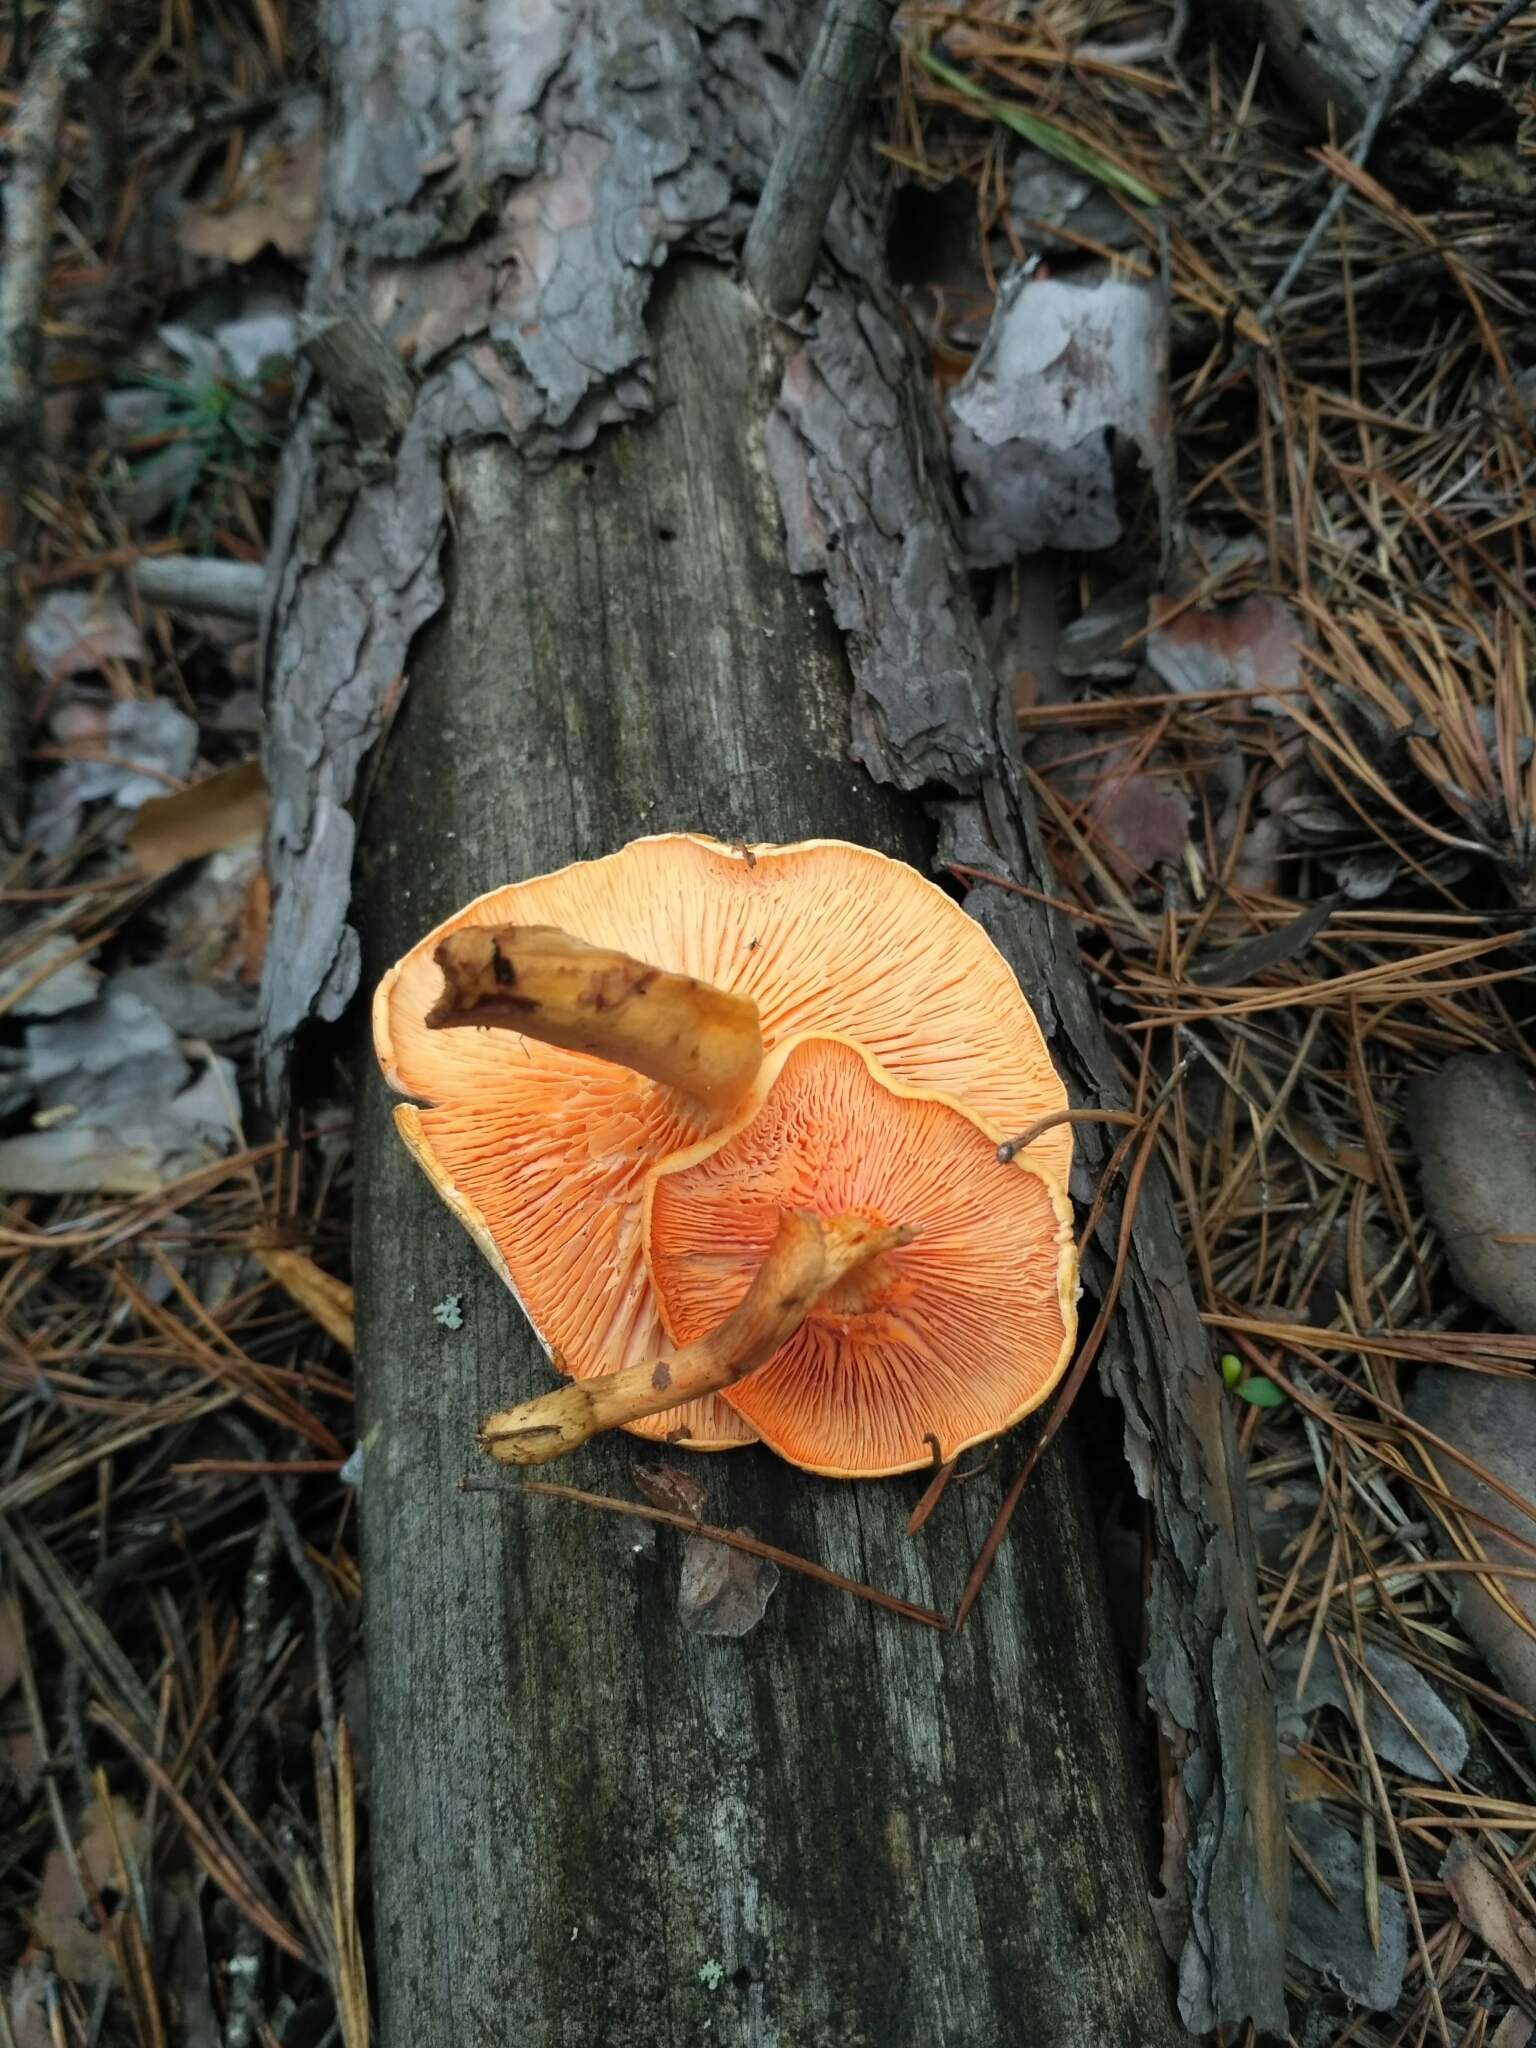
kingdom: Fungi
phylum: Basidiomycota
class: Agaricomycetes
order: Boletales
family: Hygrophoropsidaceae
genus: Hygrophoropsis
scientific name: Hygrophoropsis aurantiaca
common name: False chanterelle
